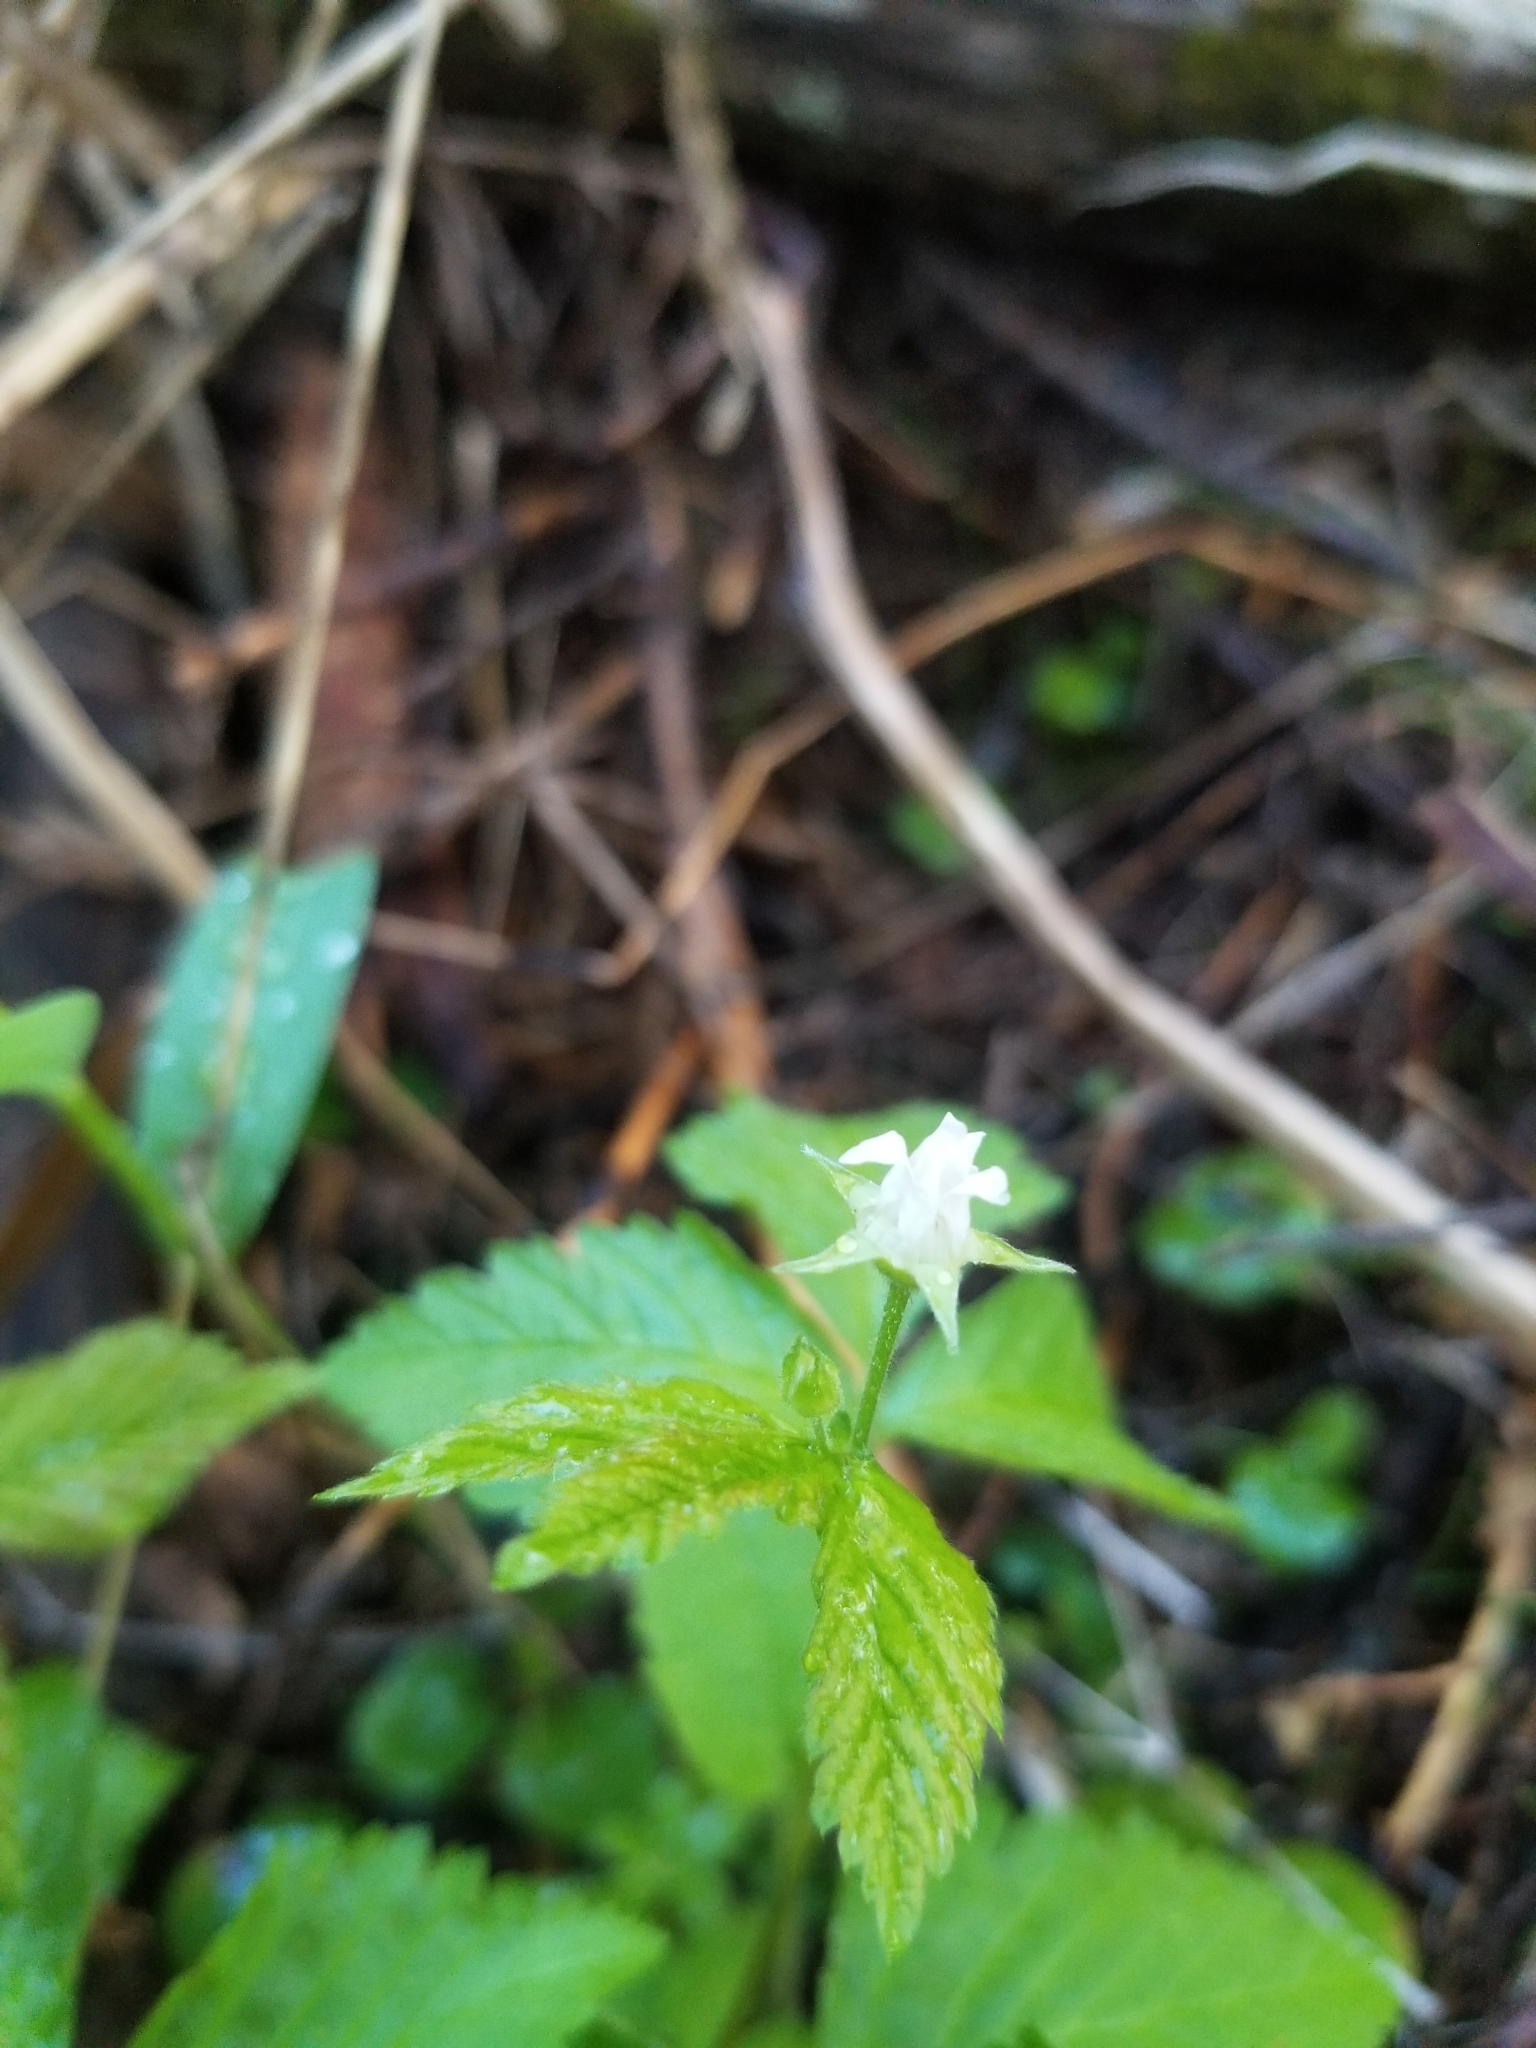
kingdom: Plantae
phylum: Tracheophyta
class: Magnoliopsida
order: Rosales
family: Rosaceae
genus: Rubus
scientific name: Rubus pubescens
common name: Dwarf raspberry
